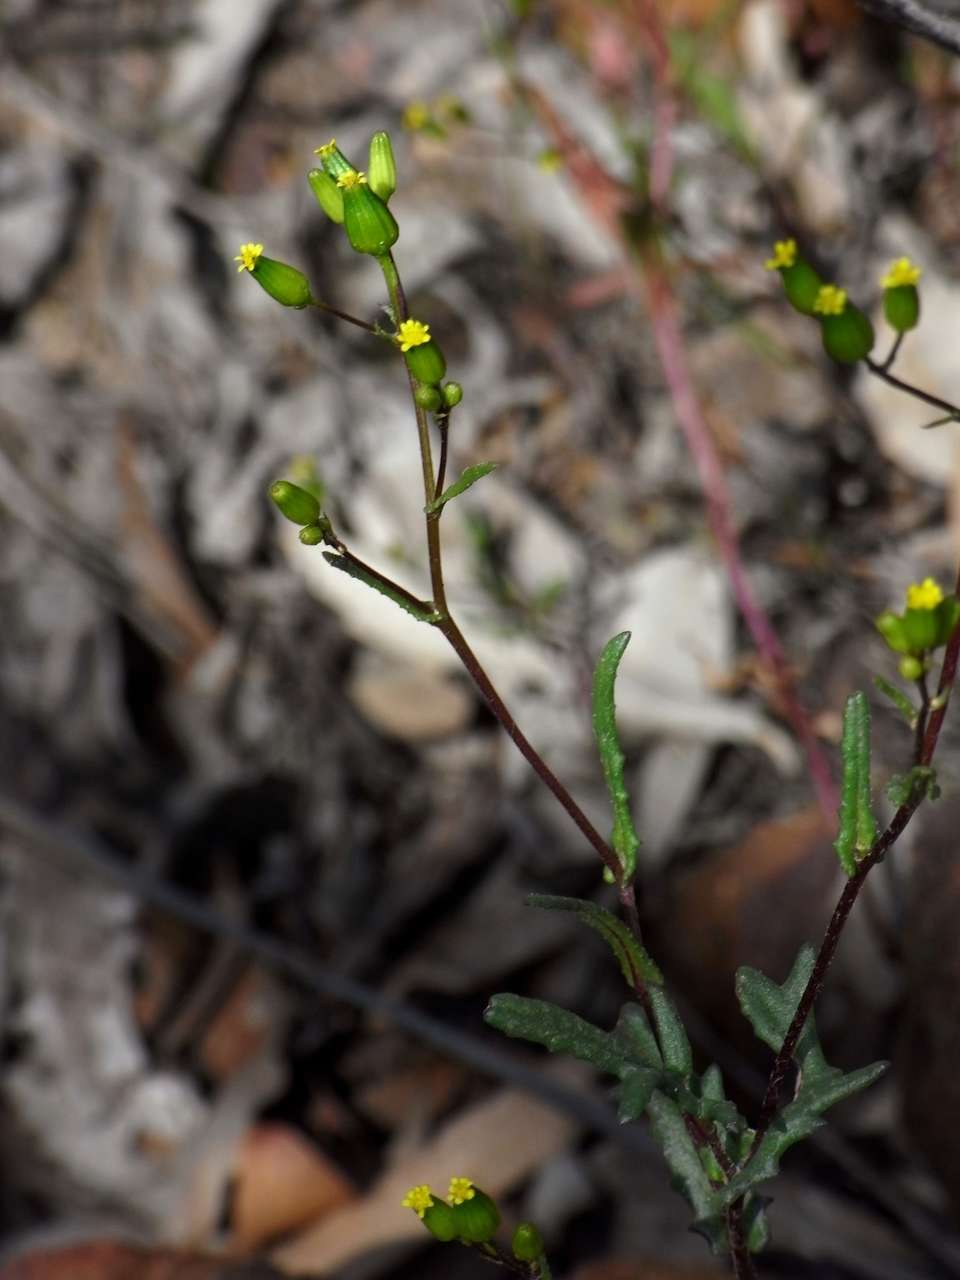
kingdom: Plantae
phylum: Tracheophyta
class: Magnoliopsida
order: Asterales
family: Asteraceae
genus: Senecio
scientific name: Senecio glossanthus
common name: Slender groundsel
